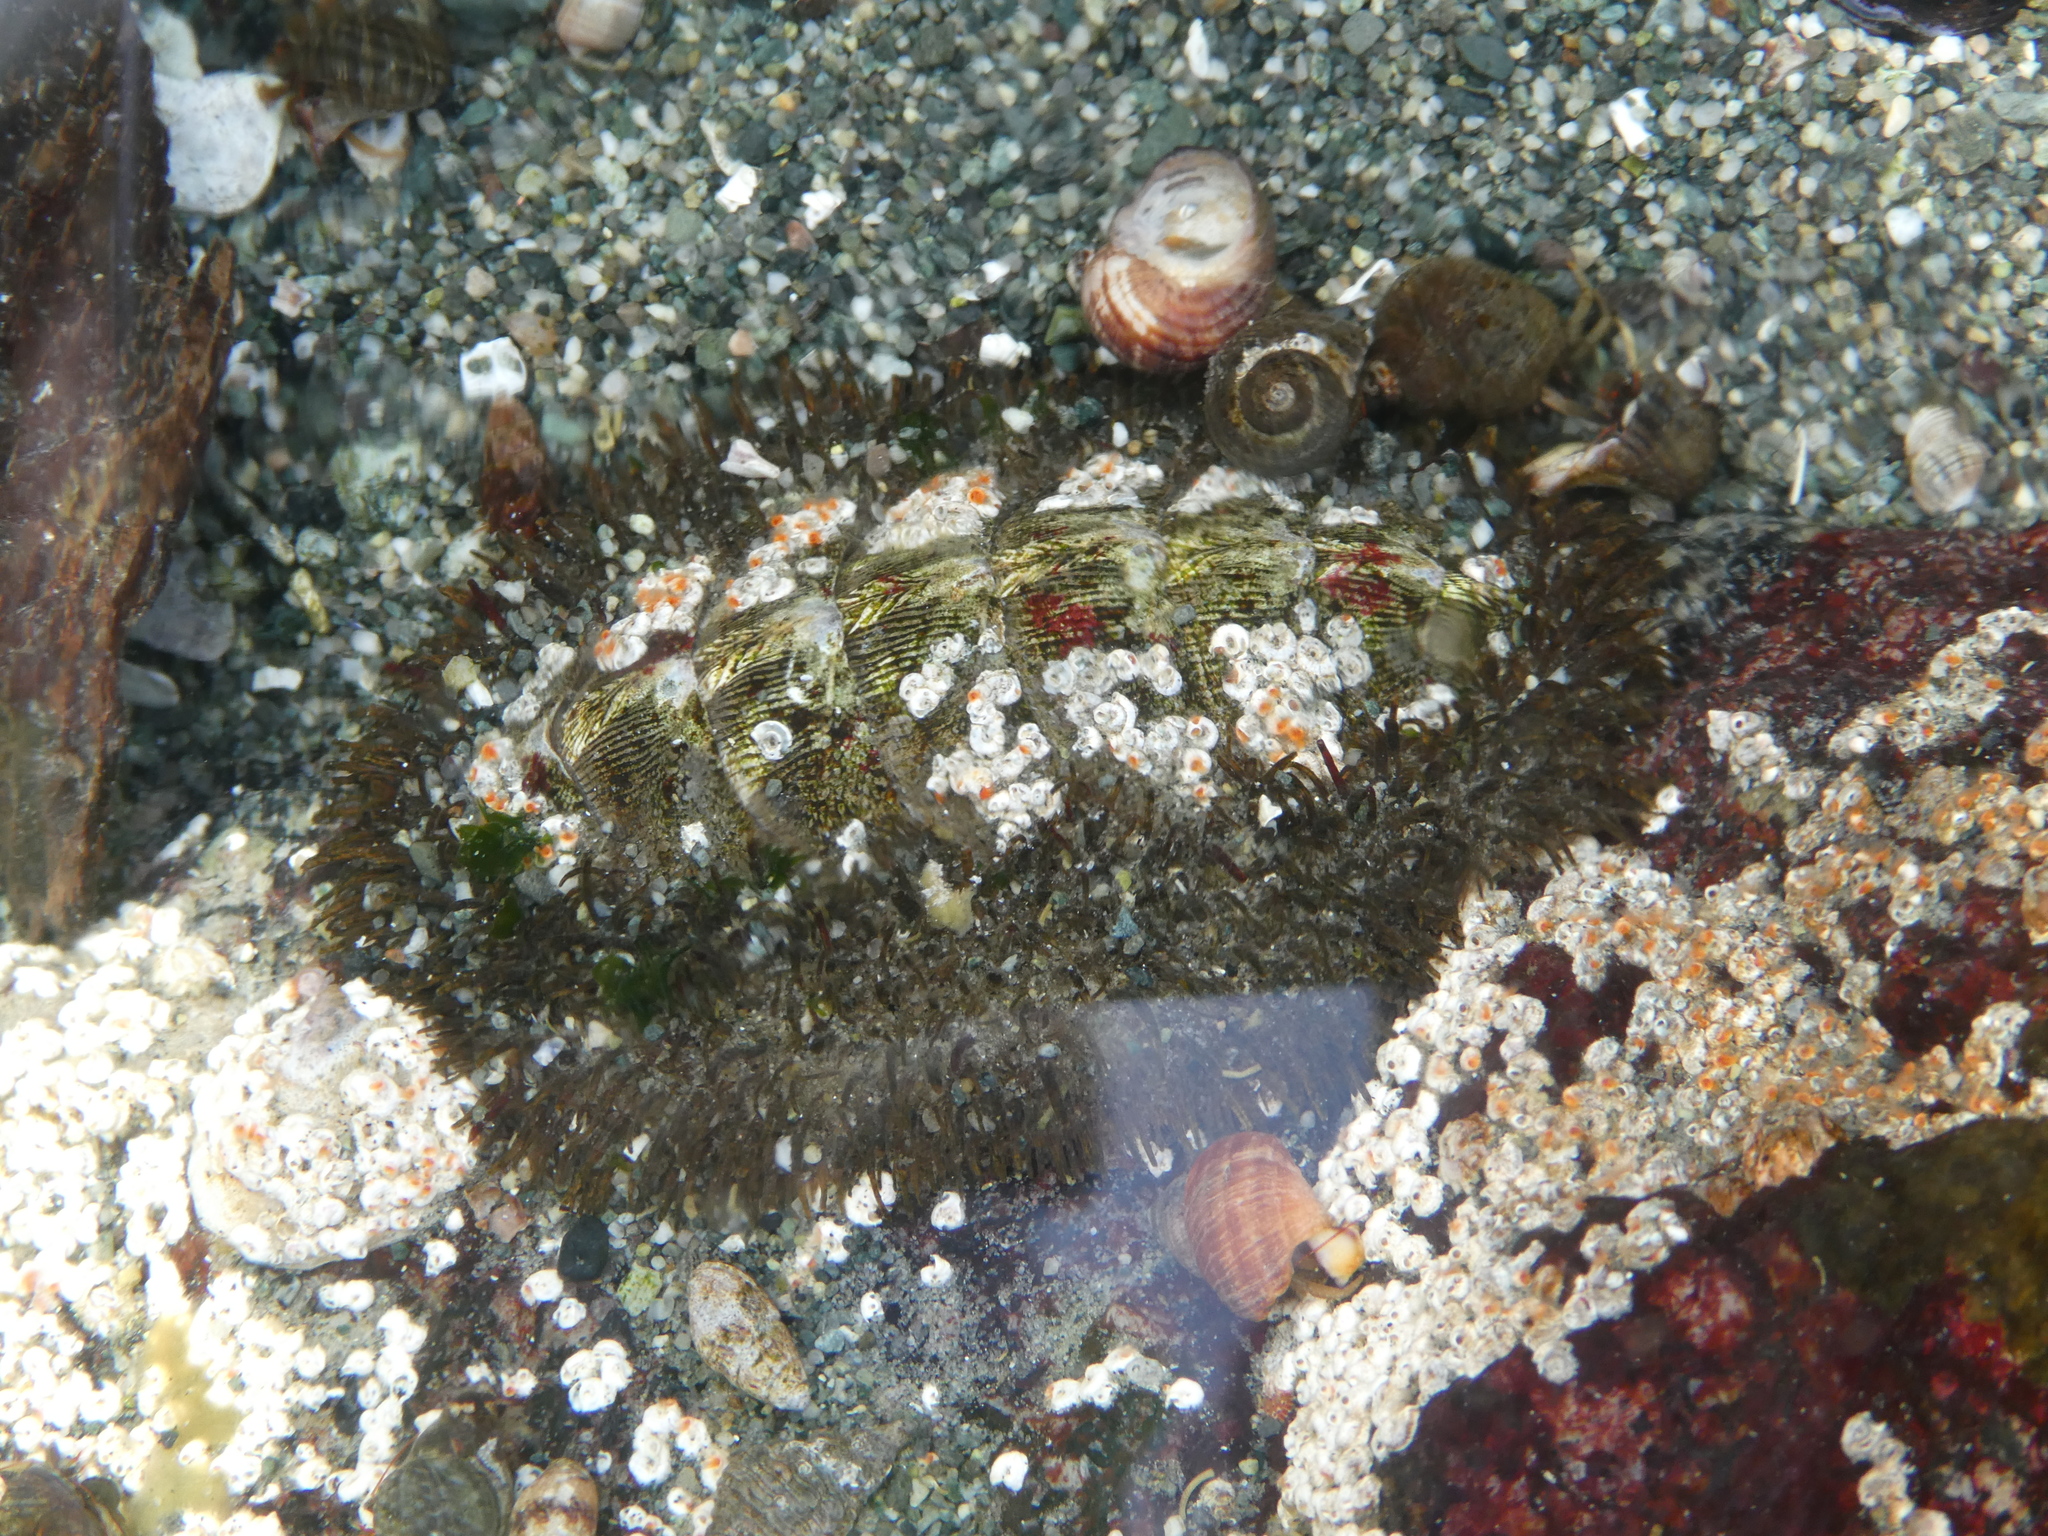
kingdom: Animalia
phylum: Mollusca
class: Polyplacophora
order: Chitonida
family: Mopaliidae
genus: Mopalia
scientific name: Mopalia muscosa
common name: Mossy chiton
